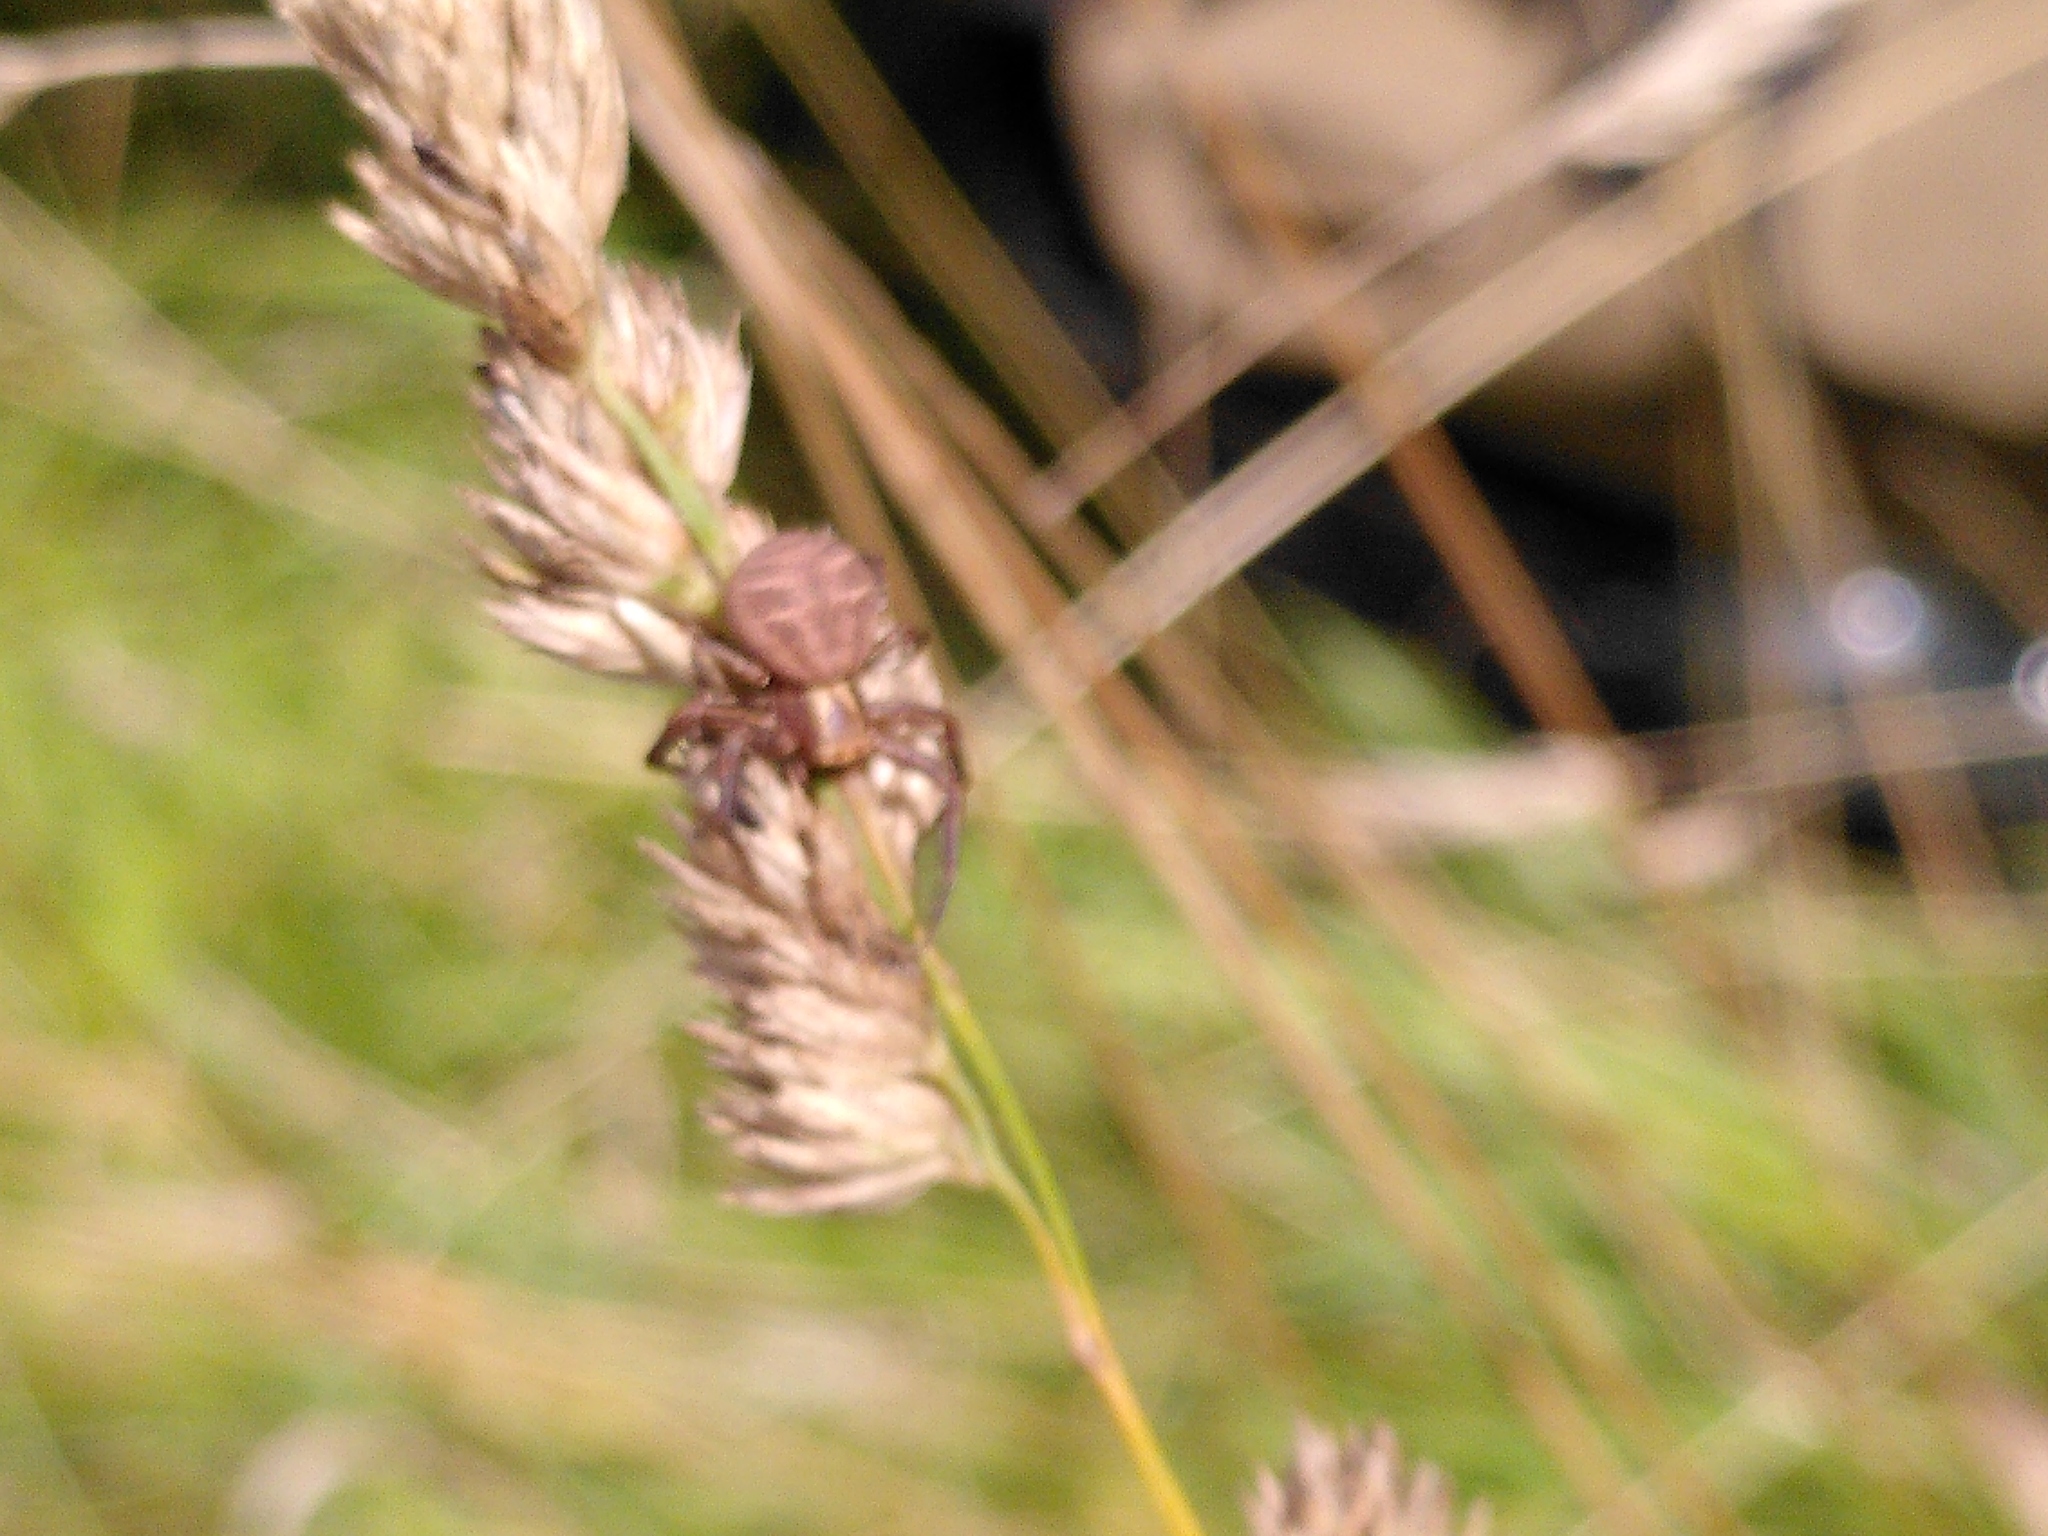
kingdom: Animalia
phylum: Arthropoda
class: Arachnida
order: Araneae
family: Thomisidae
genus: Xysticus
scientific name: Xysticus
